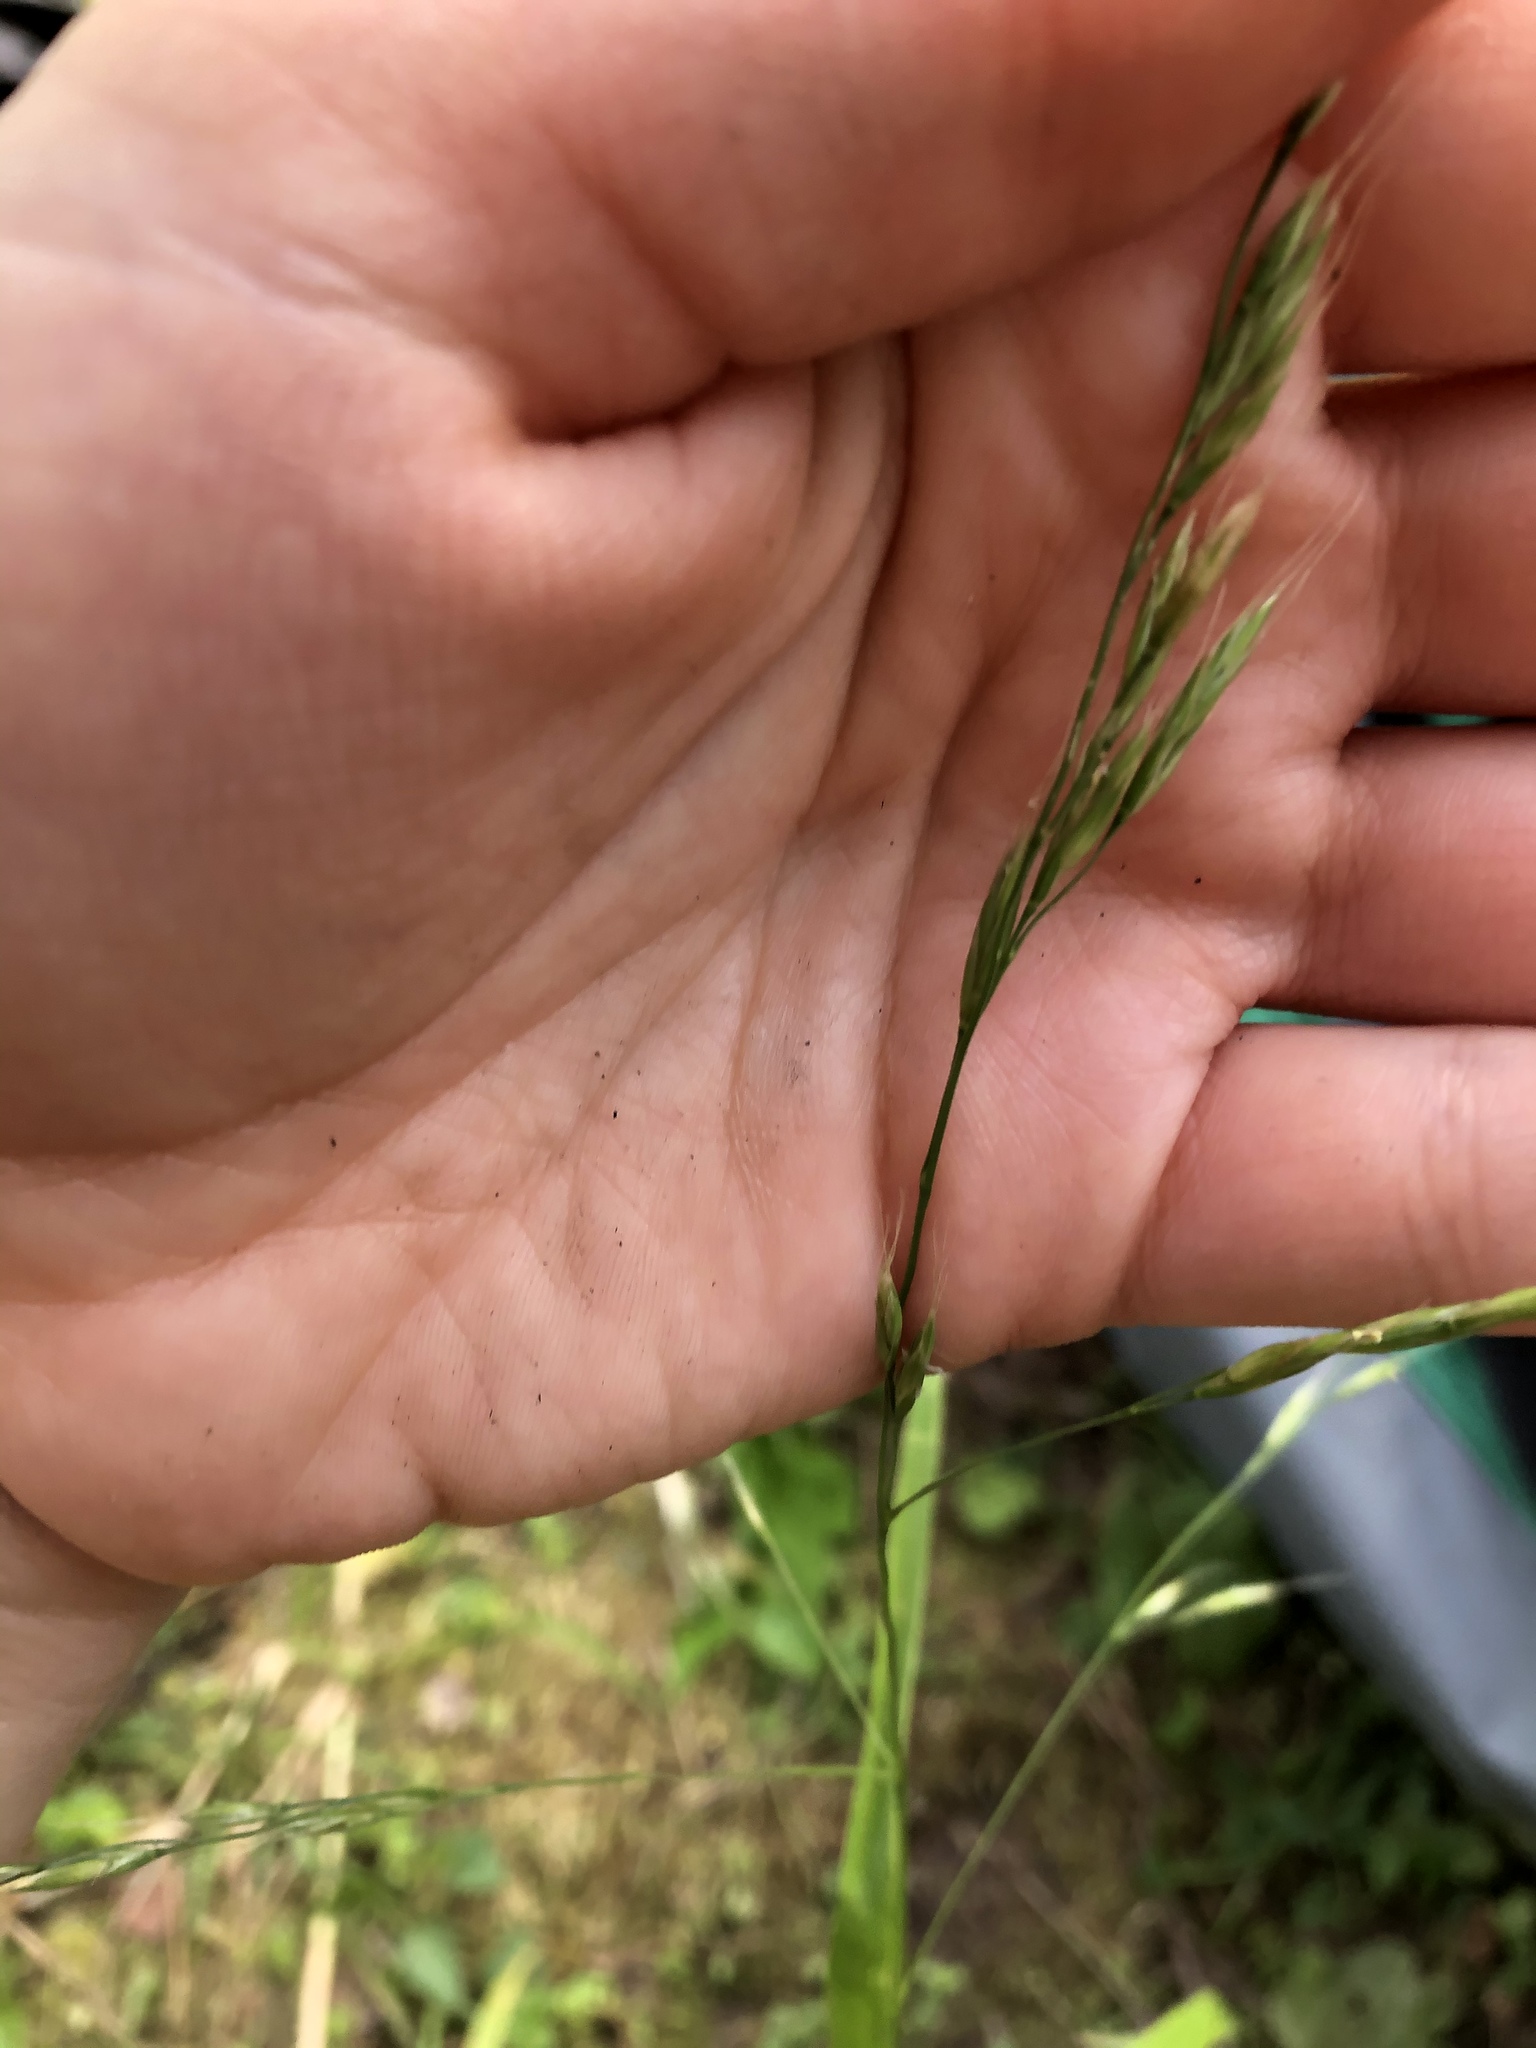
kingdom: Plantae
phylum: Tracheophyta
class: Liliopsida
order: Poales
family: Poaceae
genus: Lolium
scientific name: Lolium giganteum
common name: Giant fescue
